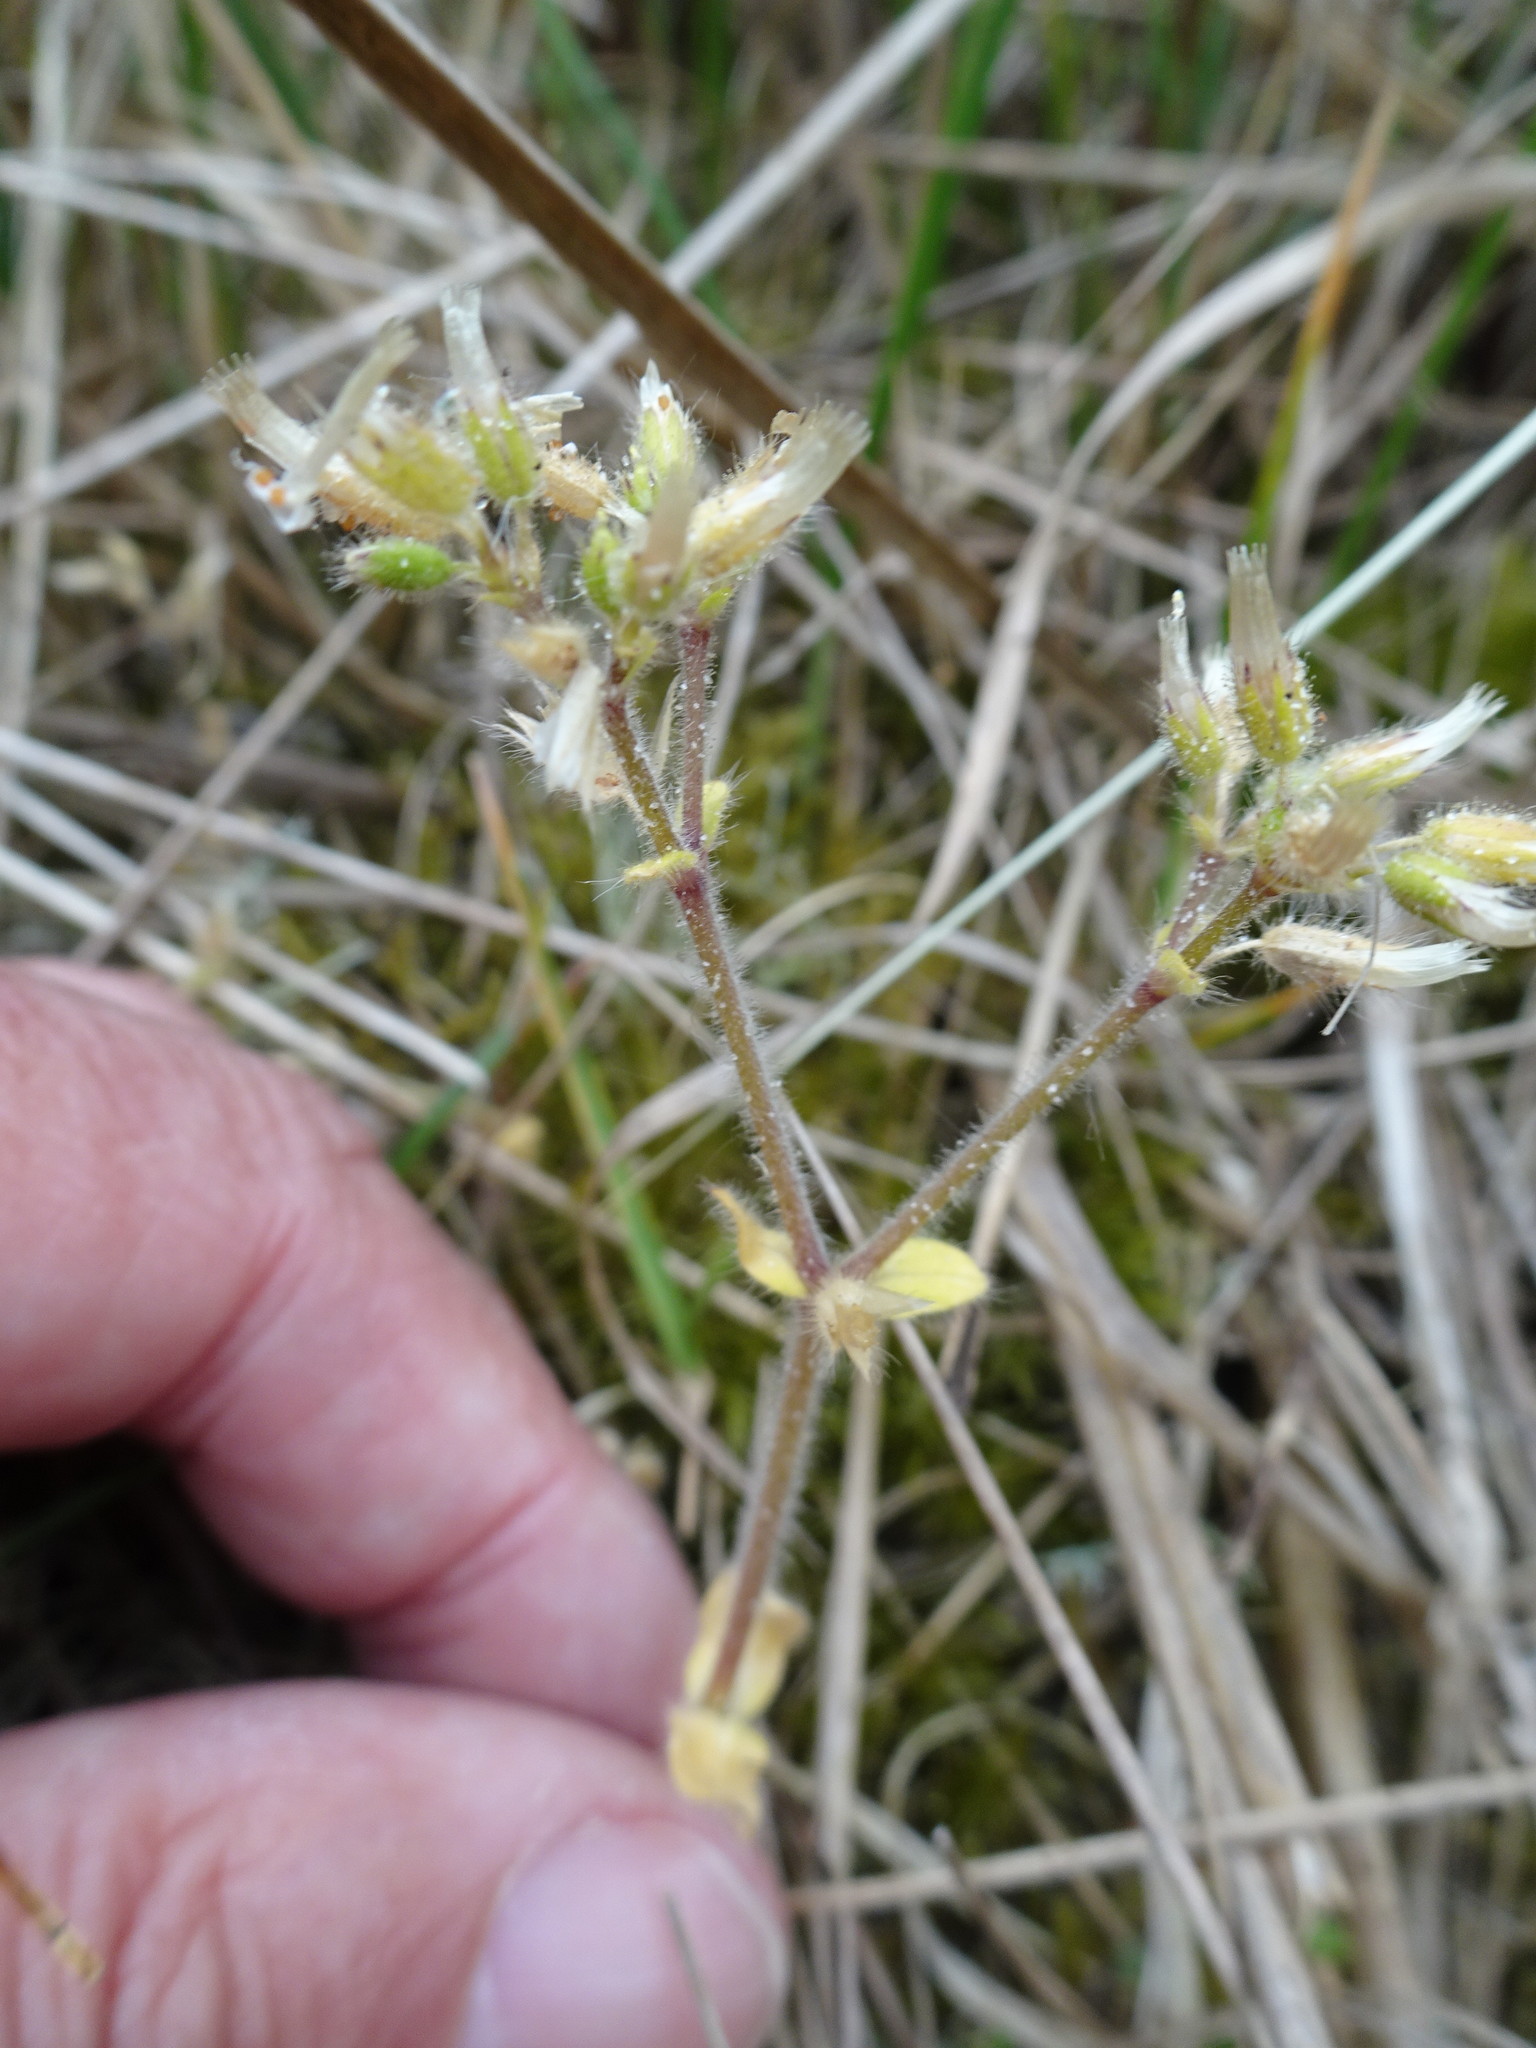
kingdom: Plantae
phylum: Tracheophyta
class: Magnoliopsida
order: Caryophyllales
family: Caryophyllaceae
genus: Cerastium
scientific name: Cerastium glomeratum
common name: Sticky chickweed
